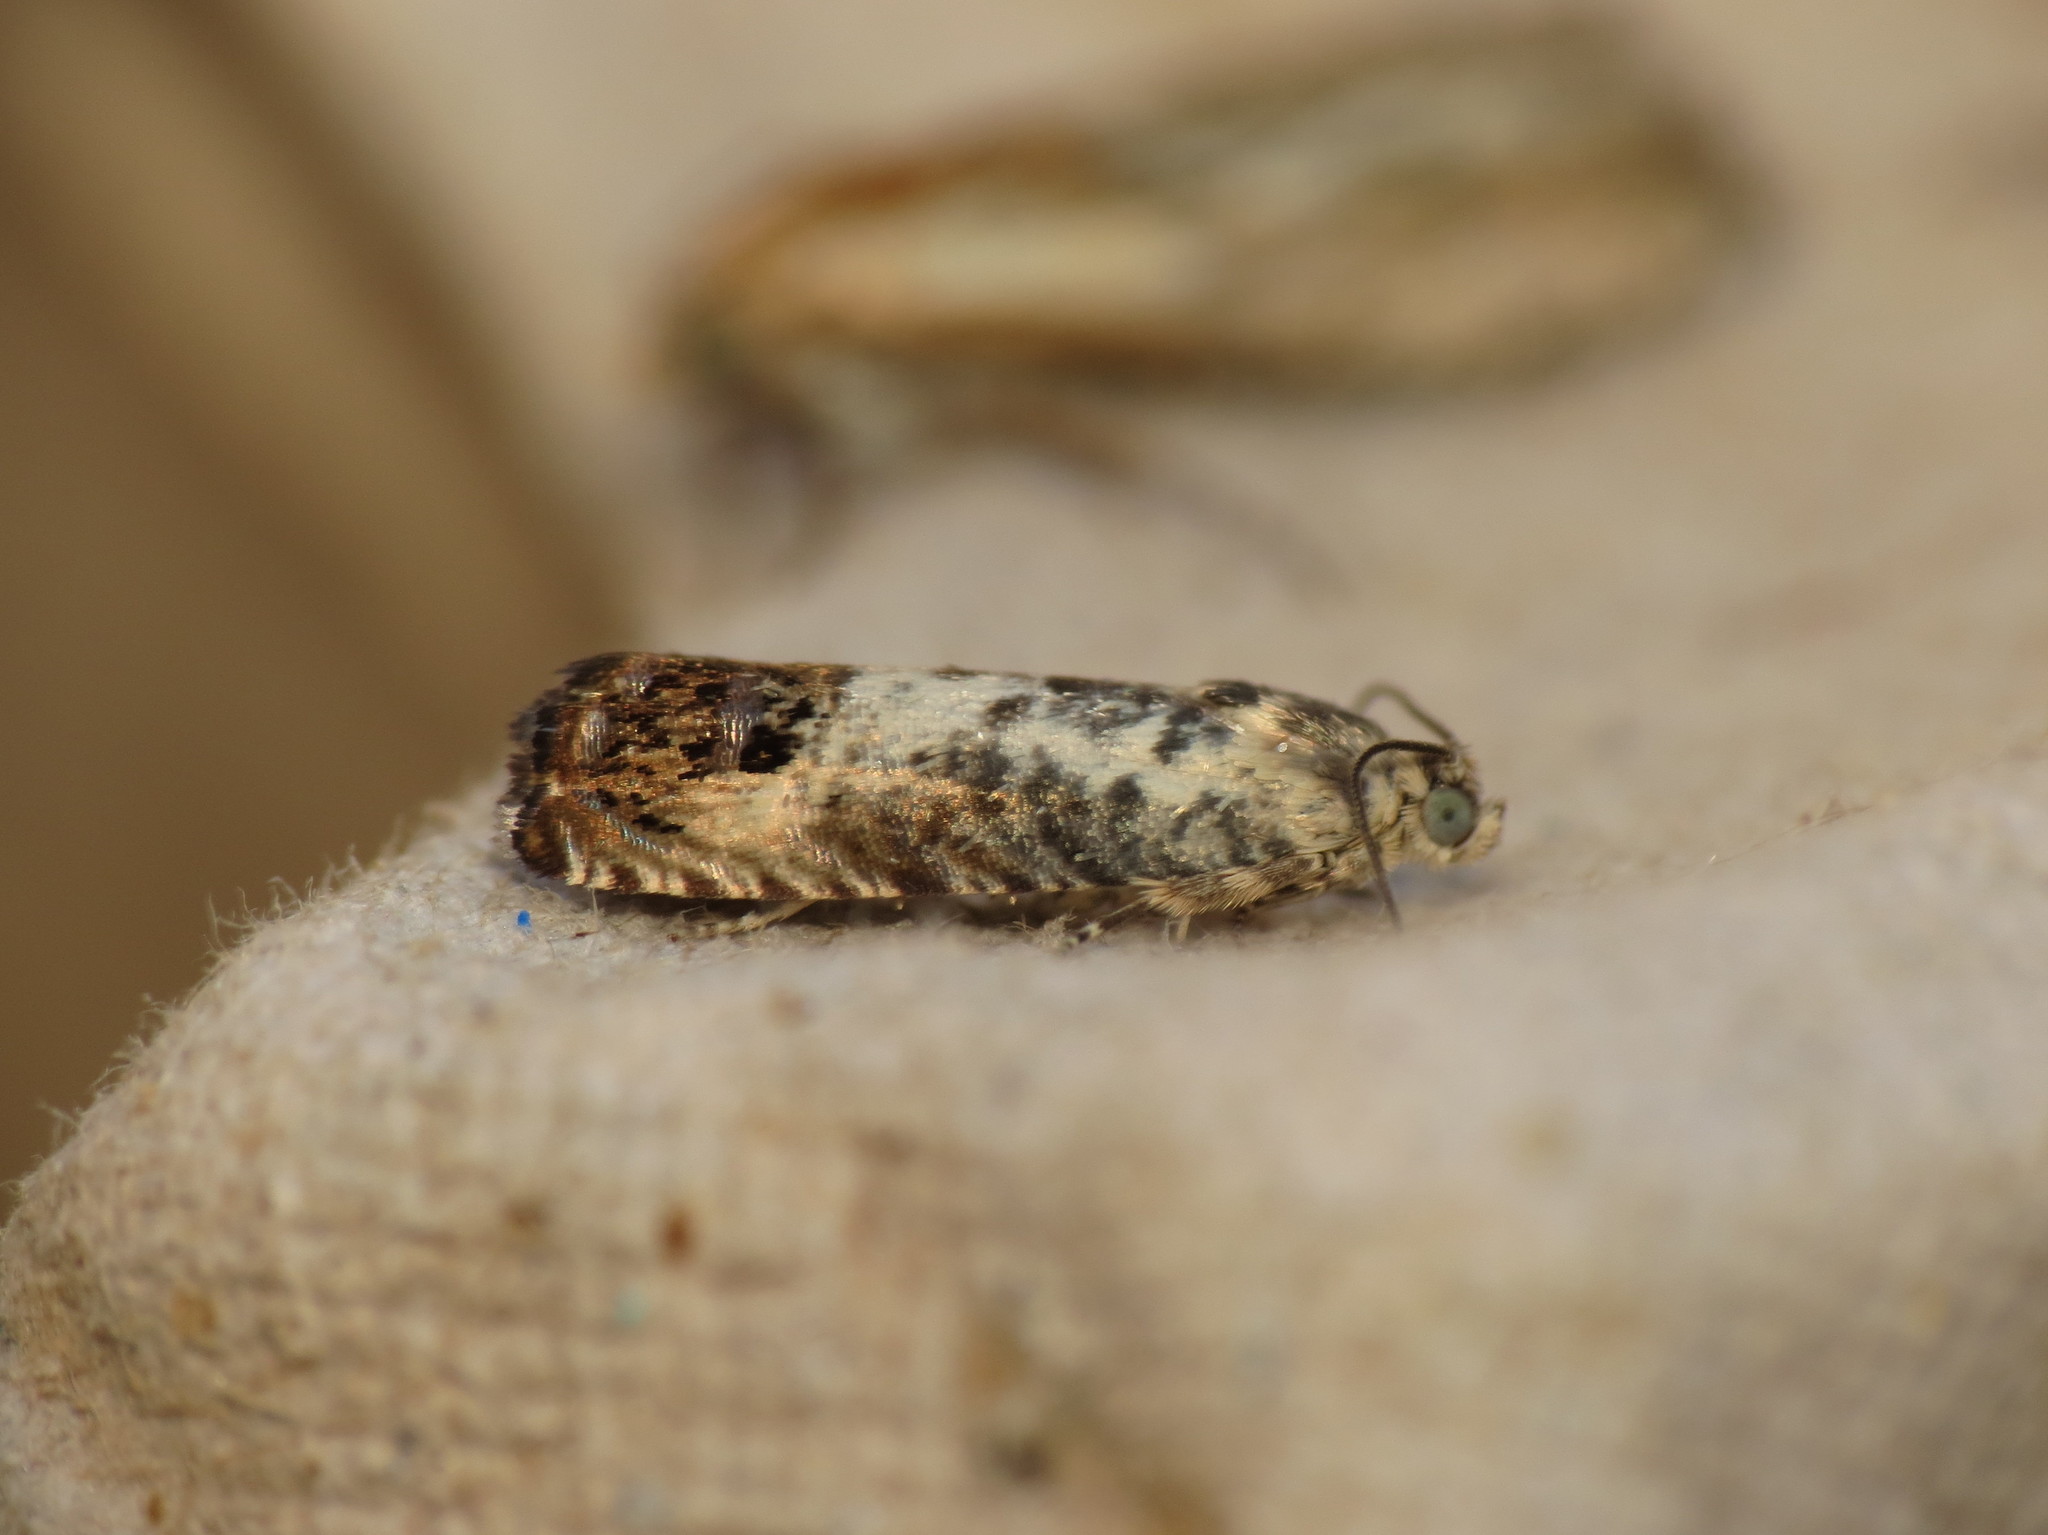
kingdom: Animalia
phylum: Arthropoda
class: Insecta
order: Lepidoptera
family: Tortricidae
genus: Pammene
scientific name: Pammene fasciana
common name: Acorn piercer
